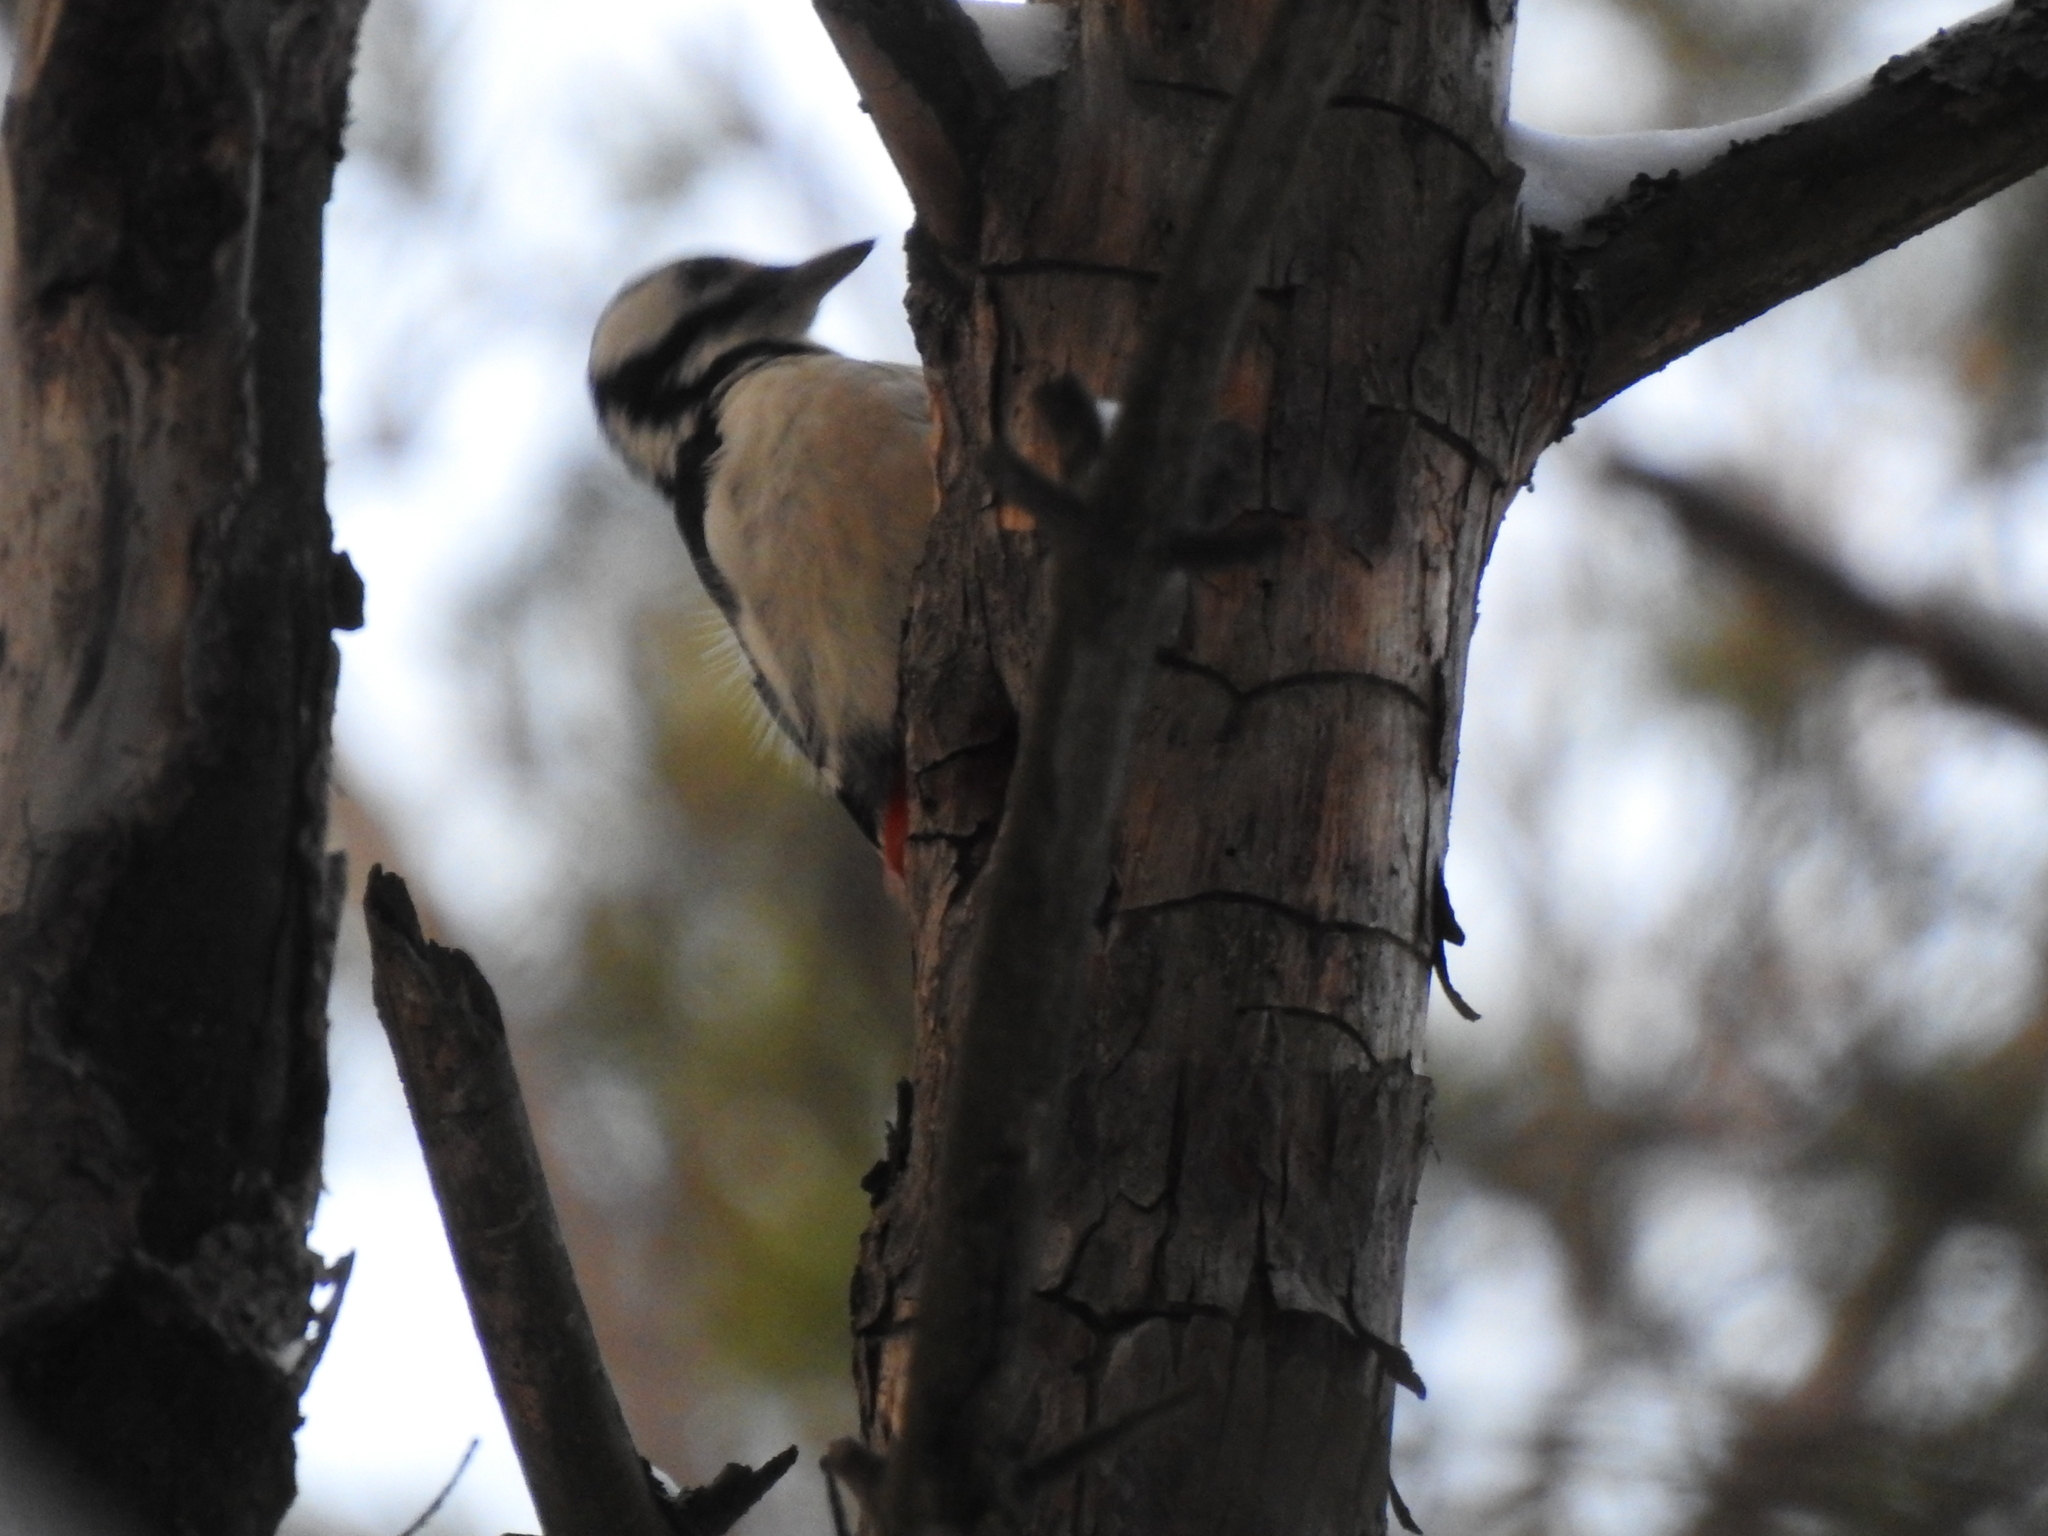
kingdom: Animalia
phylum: Chordata
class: Aves
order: Piciformes
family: Picidae
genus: Dendrocopos
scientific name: Dendrocopos major
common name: Great spotted woodpecker
